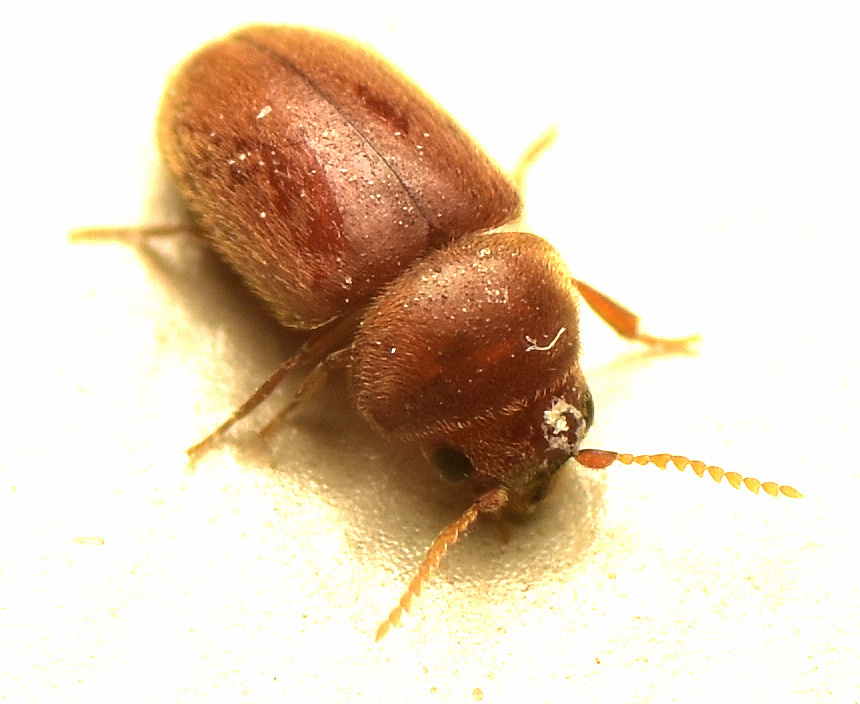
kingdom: Animalia
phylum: Arthropoda
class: Insecta
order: Coleoptera
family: Anobiidae
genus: Lasioderma
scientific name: Lasioderma serricorne
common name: Cigarette beetle
